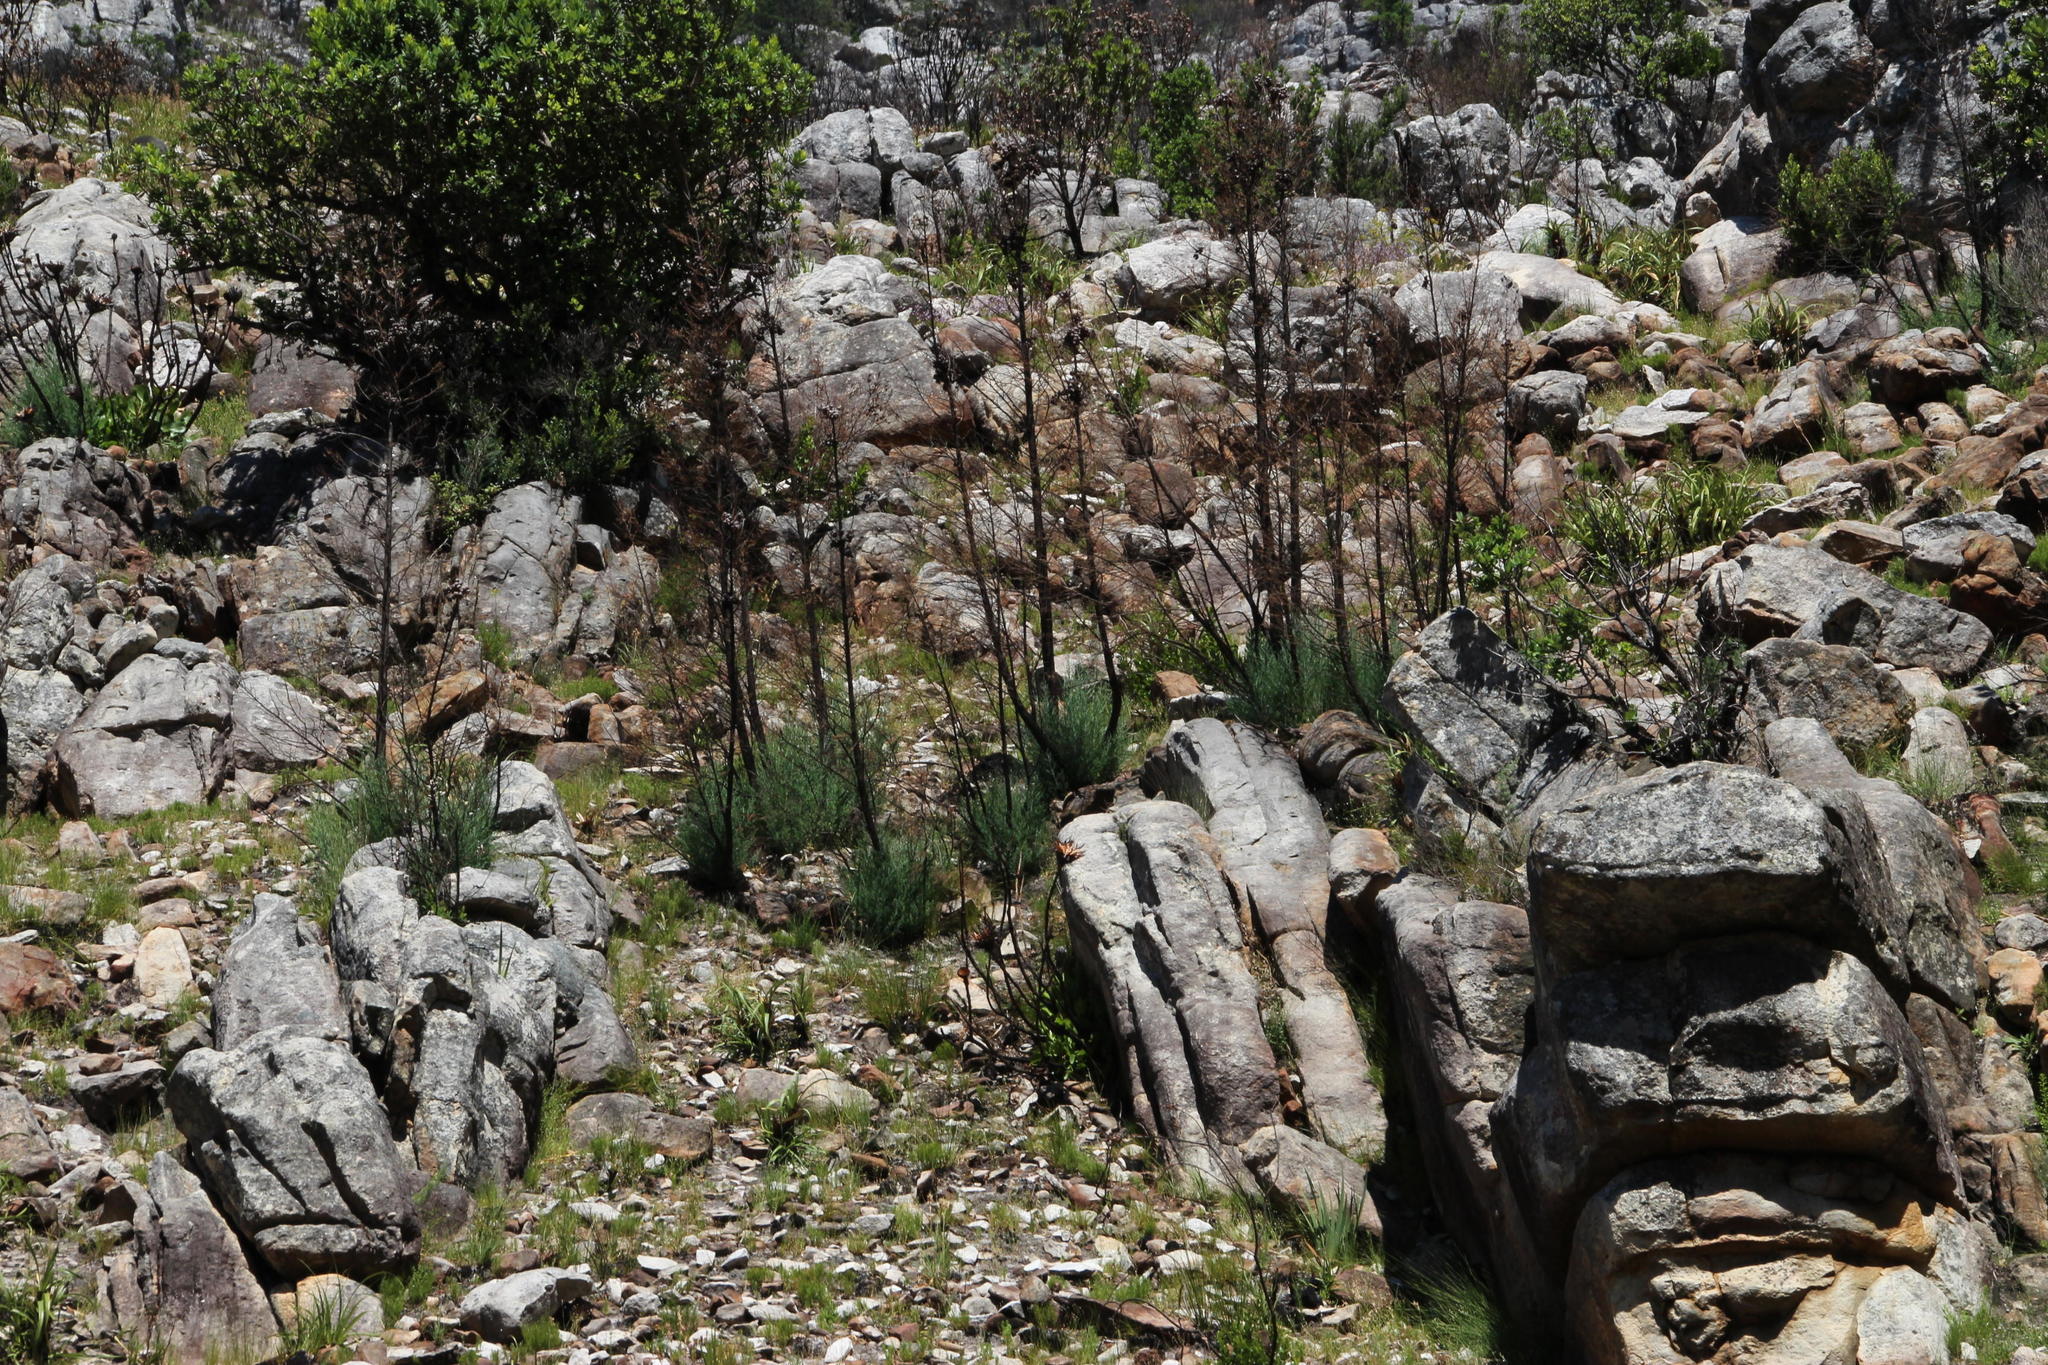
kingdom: Plantae
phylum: Tracheophyta
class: Pinopsida
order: Pinales
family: Cupressaceae
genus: Widdringtonia
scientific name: Widdringtonia nodiflora
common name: Cape cypress
